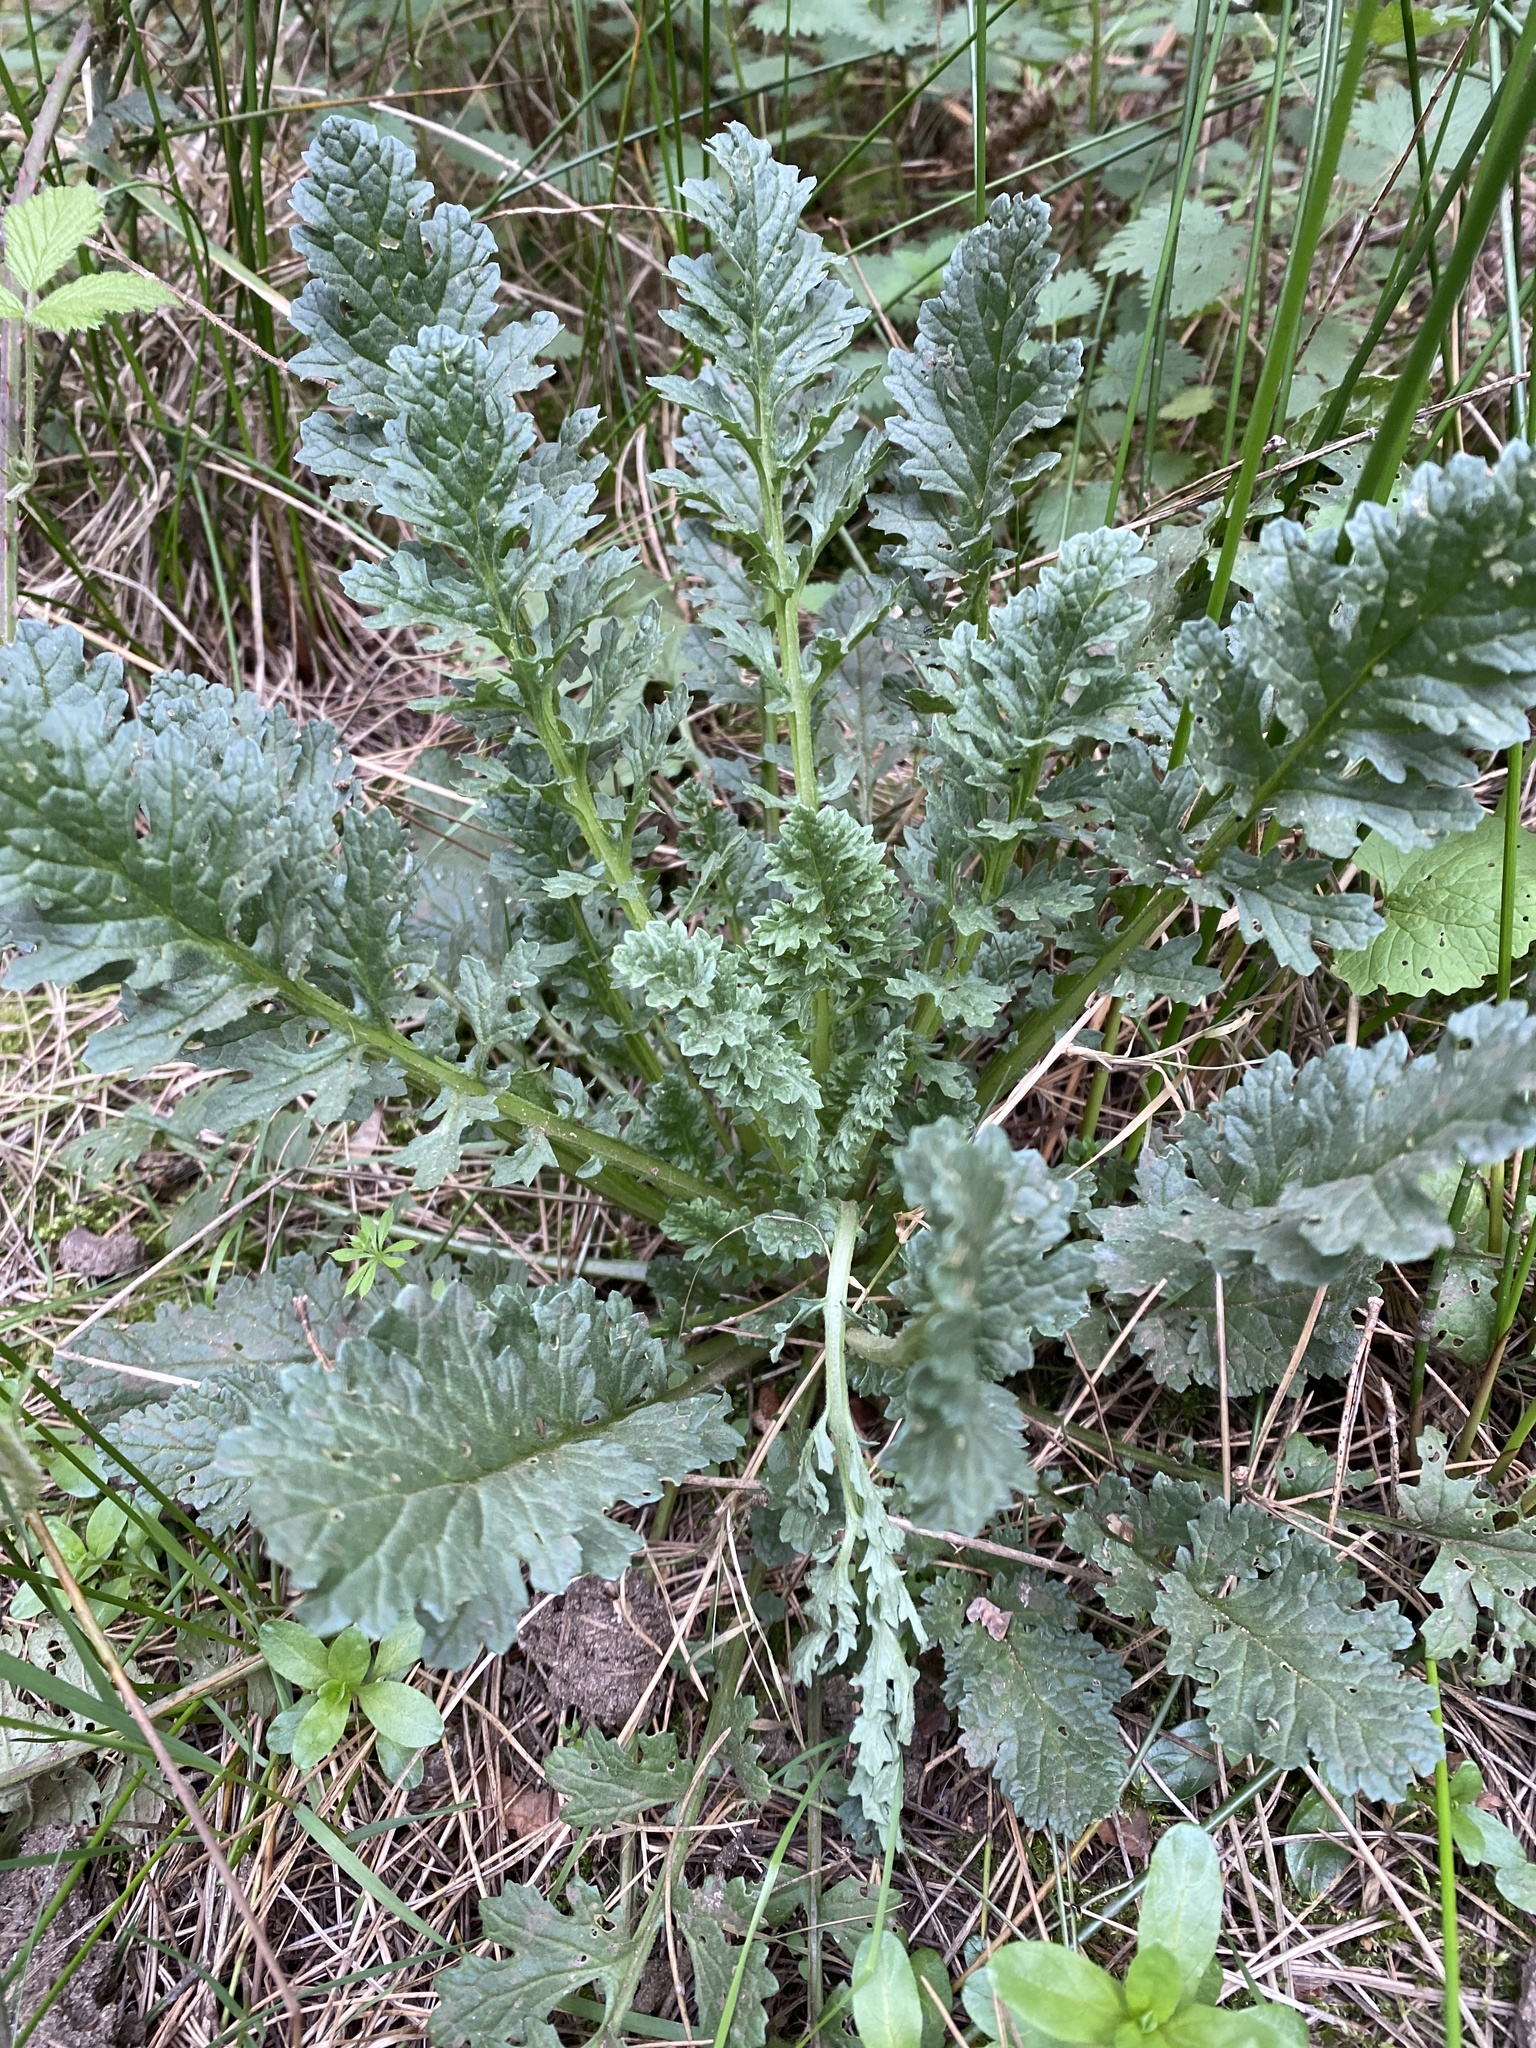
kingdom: Plantae
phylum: Tracheophyta
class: Magnoliopsida
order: Asterales
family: Asteraceae
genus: Jacobaea
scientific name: Jacobaea vulgaris
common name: Stinking willie
